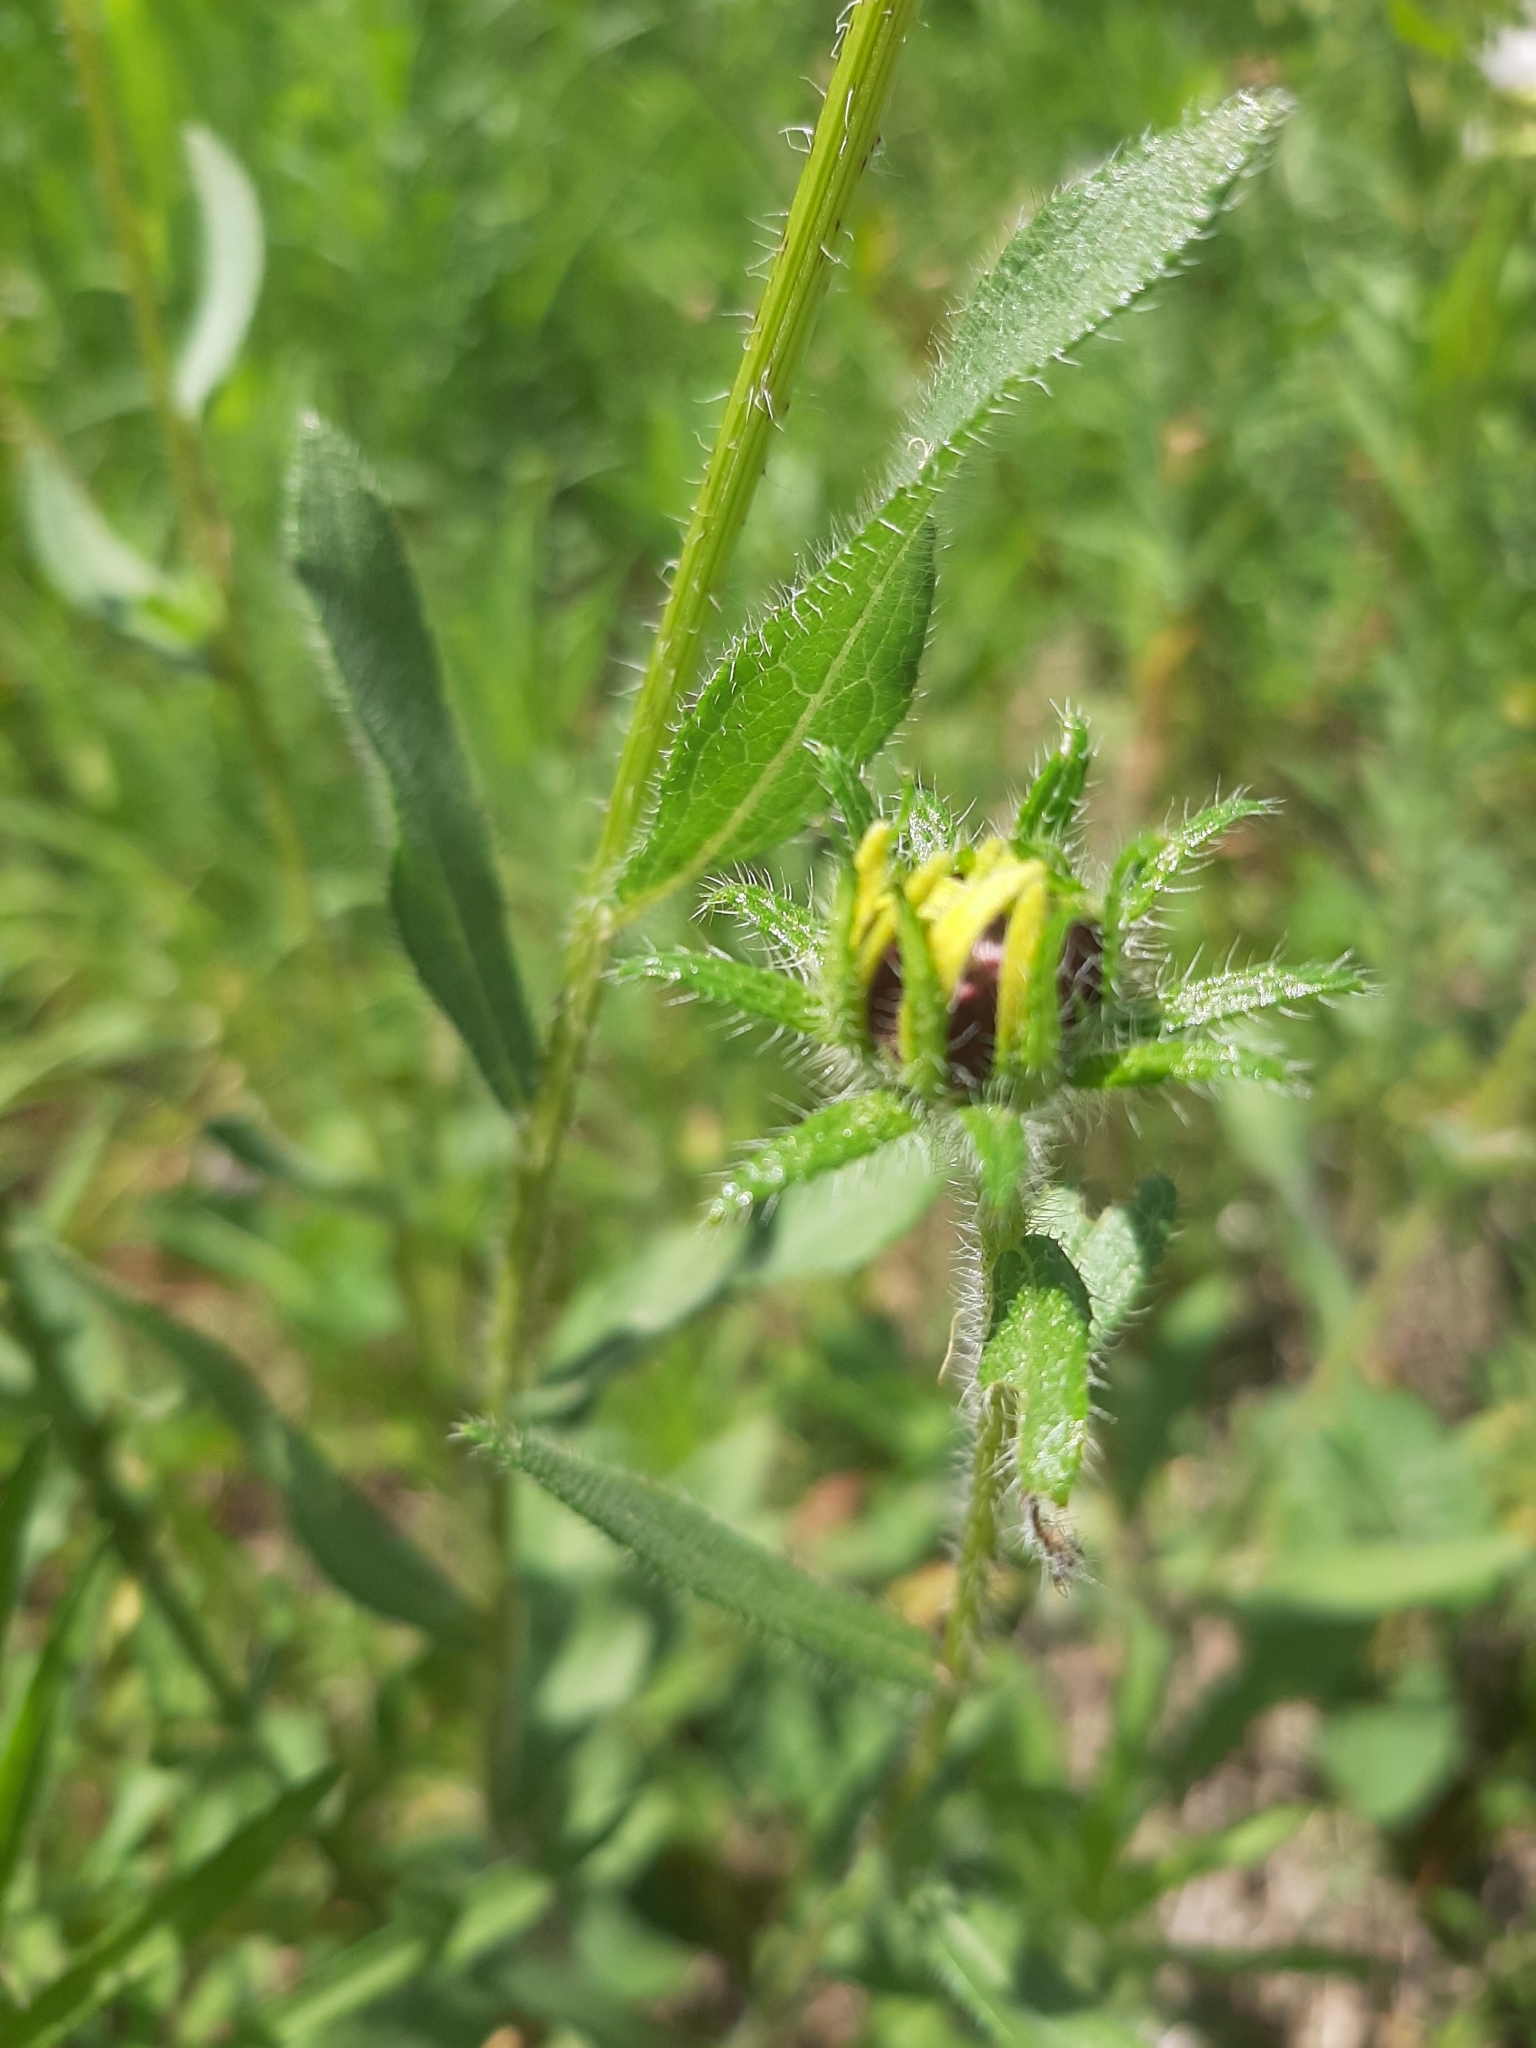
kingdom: Plantae
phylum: Tracheophyta
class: Magnoliopsida
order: Asterales
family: Asteraceae
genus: Rudbeckia
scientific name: Rudbeckia hirta
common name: Black-eyed-susan
